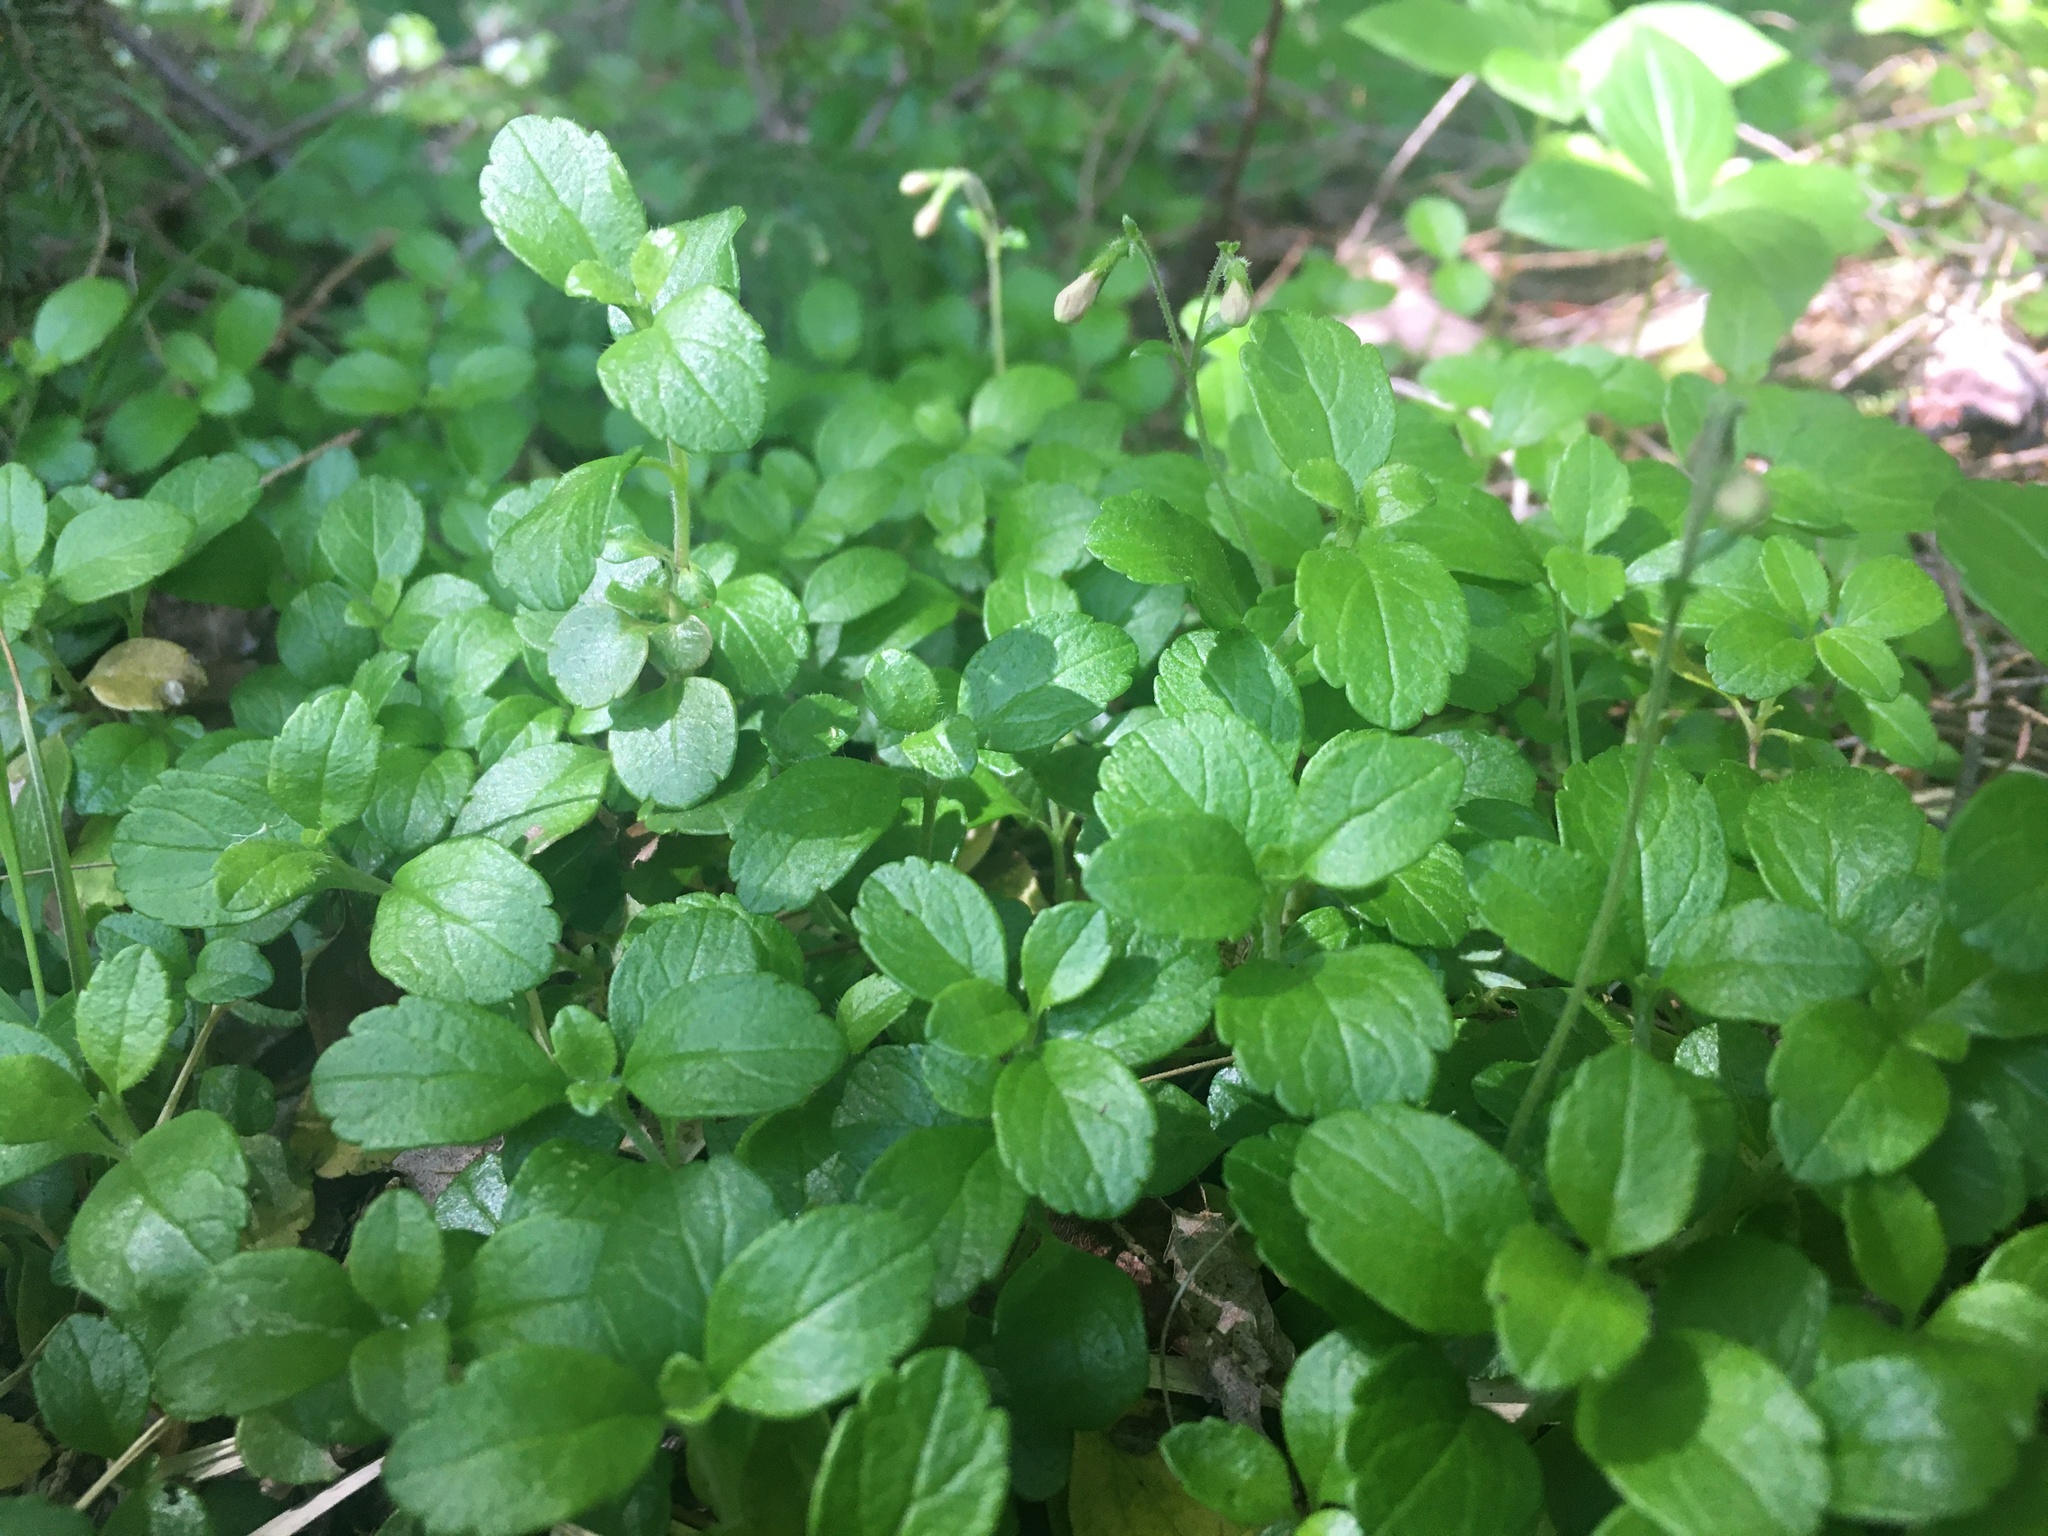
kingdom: Plantae
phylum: Tracheophyta
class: Magnoliopsida
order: Dipsacales
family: Caprifoliaceae
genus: Linnaea
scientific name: Linnaea borealis
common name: Twinflower
